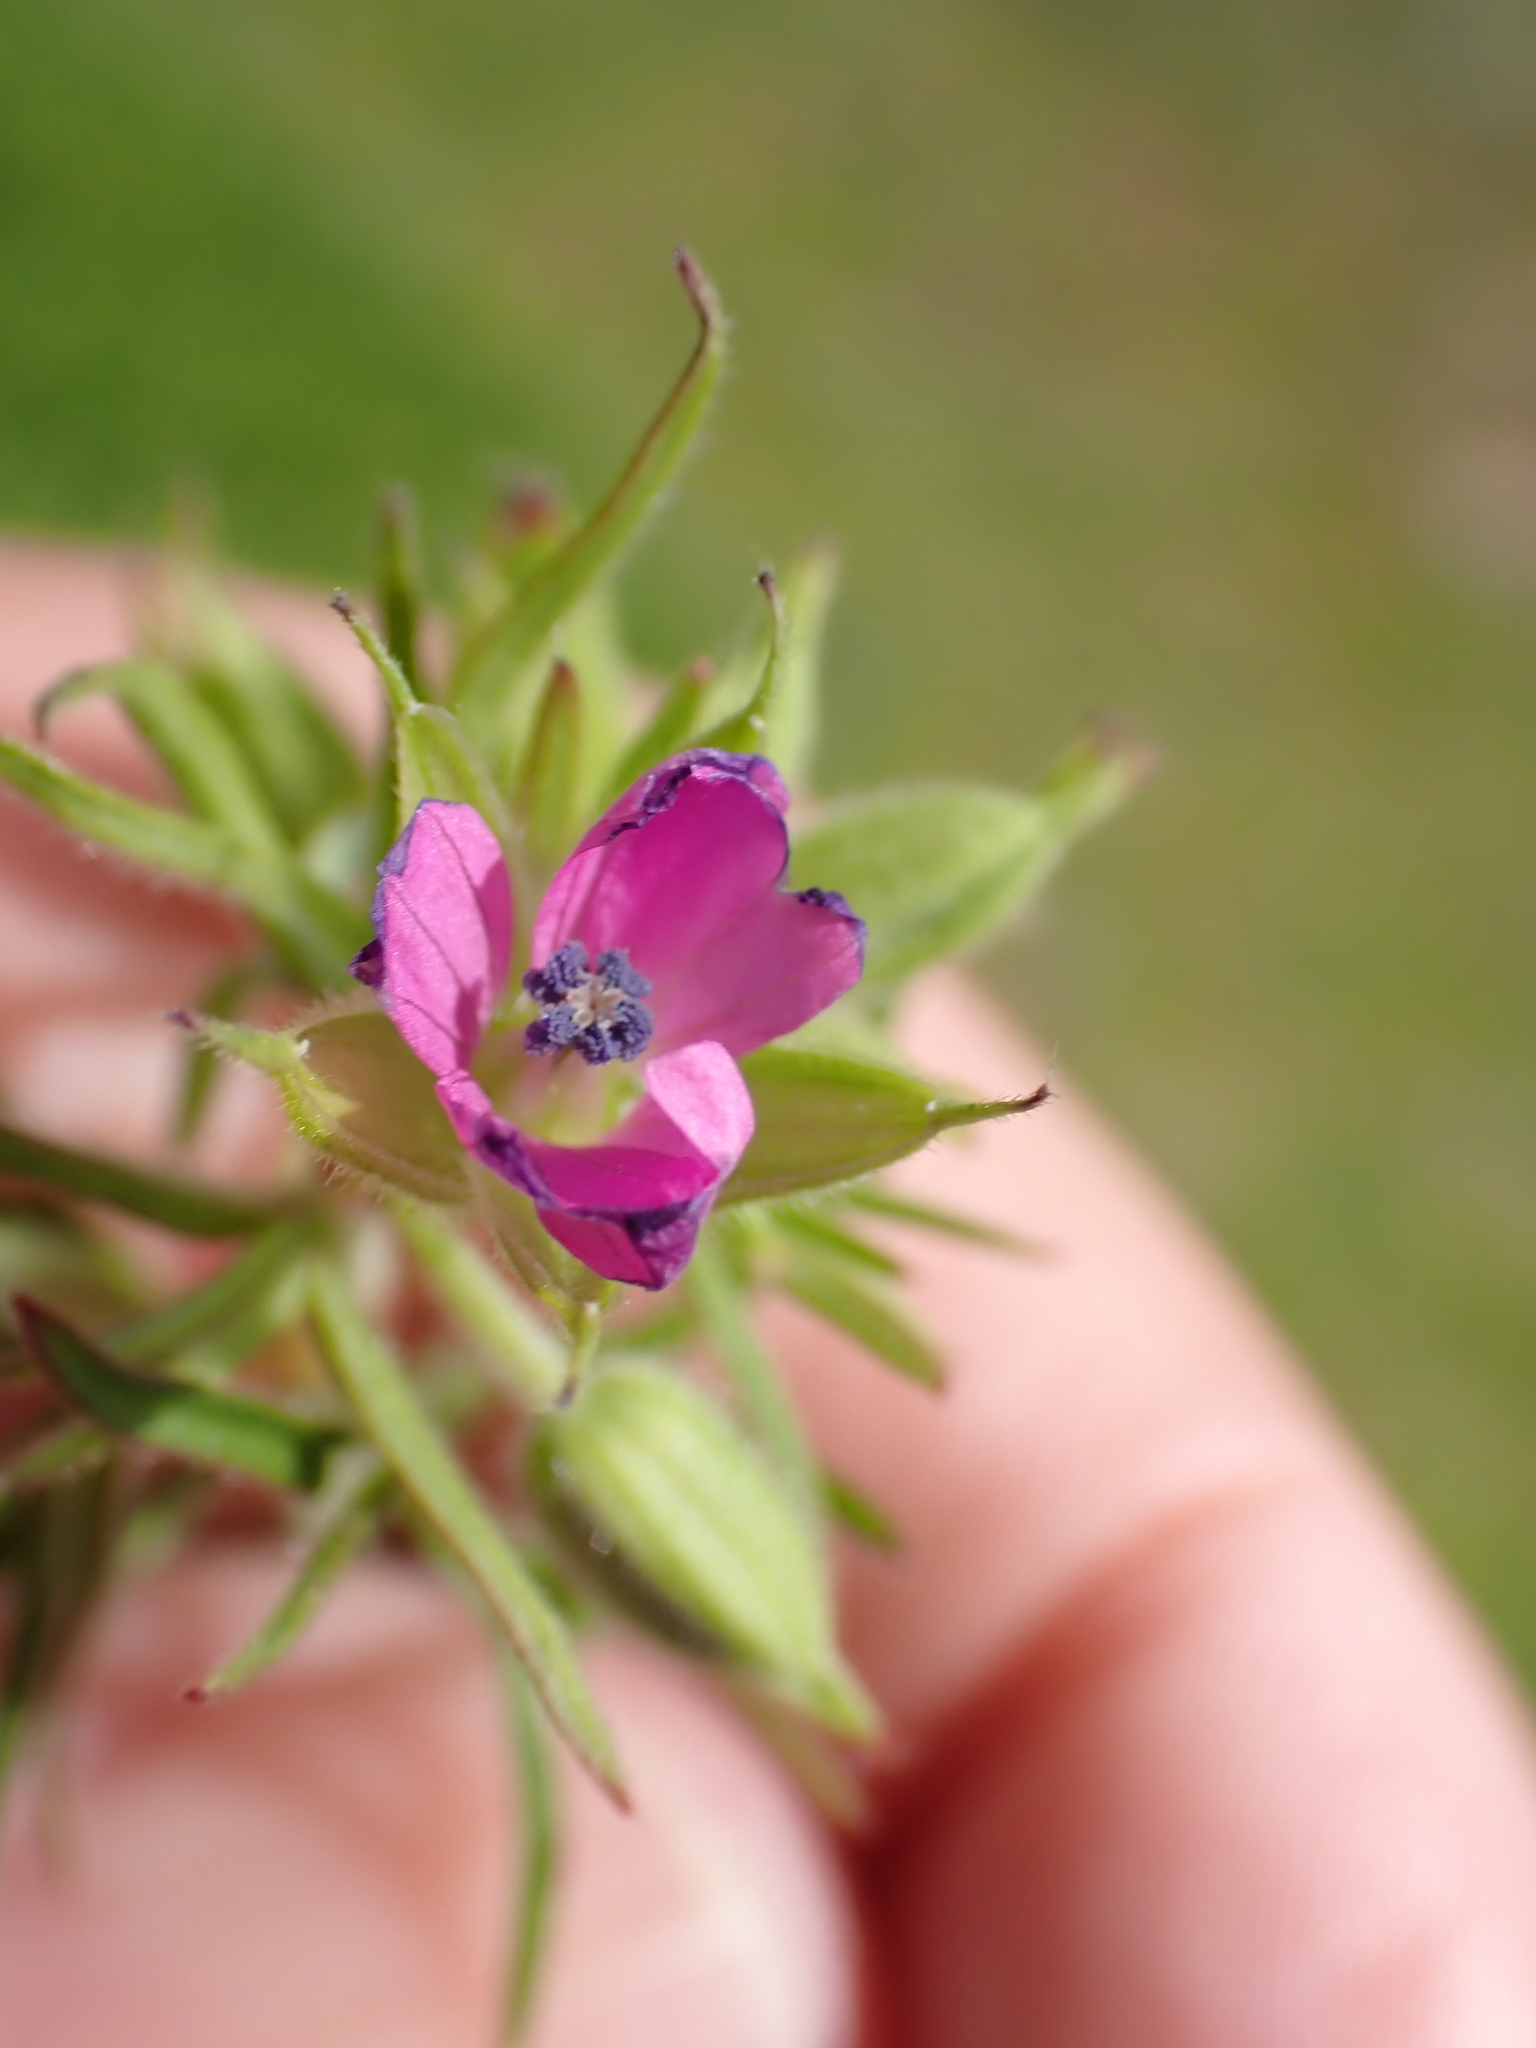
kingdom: Plantae
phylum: Tracheophyta
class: Magnoliopsida
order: Geraniales
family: Geraniaceae
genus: Geranium
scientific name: Geranium dissectum
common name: Cut-leaved crane's-bill
